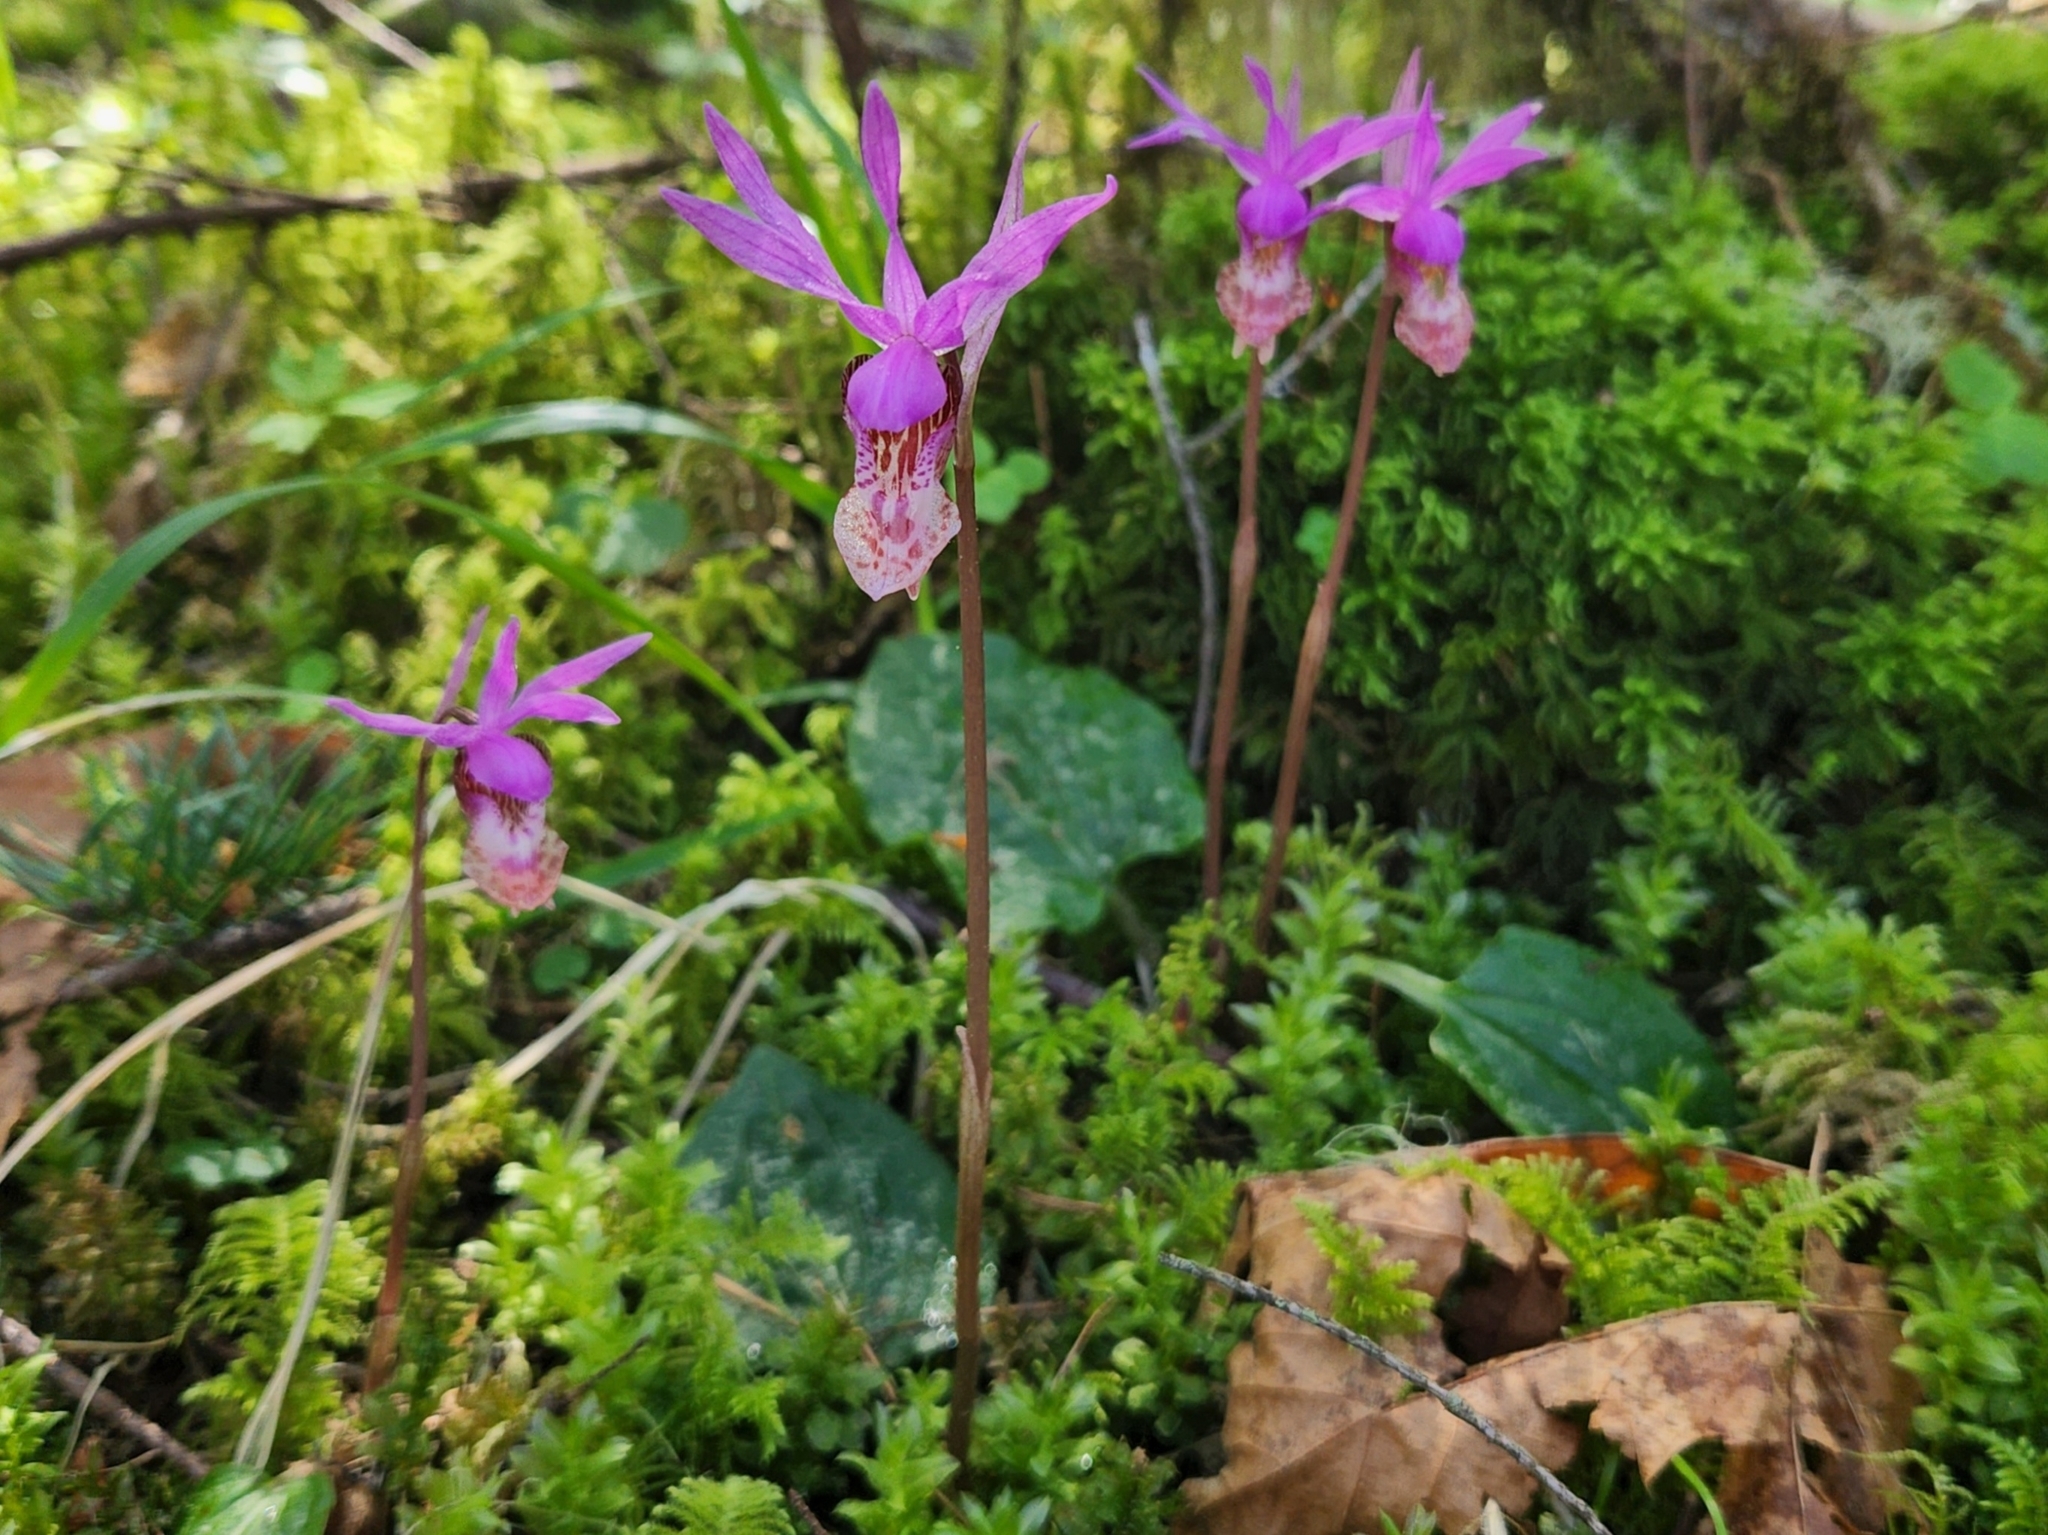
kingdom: Plantae
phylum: Tracheophyta
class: Liliopsida
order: Asparagales
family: Orchidaceae
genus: Calypso
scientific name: Calypso bulbosa
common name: Calypso
